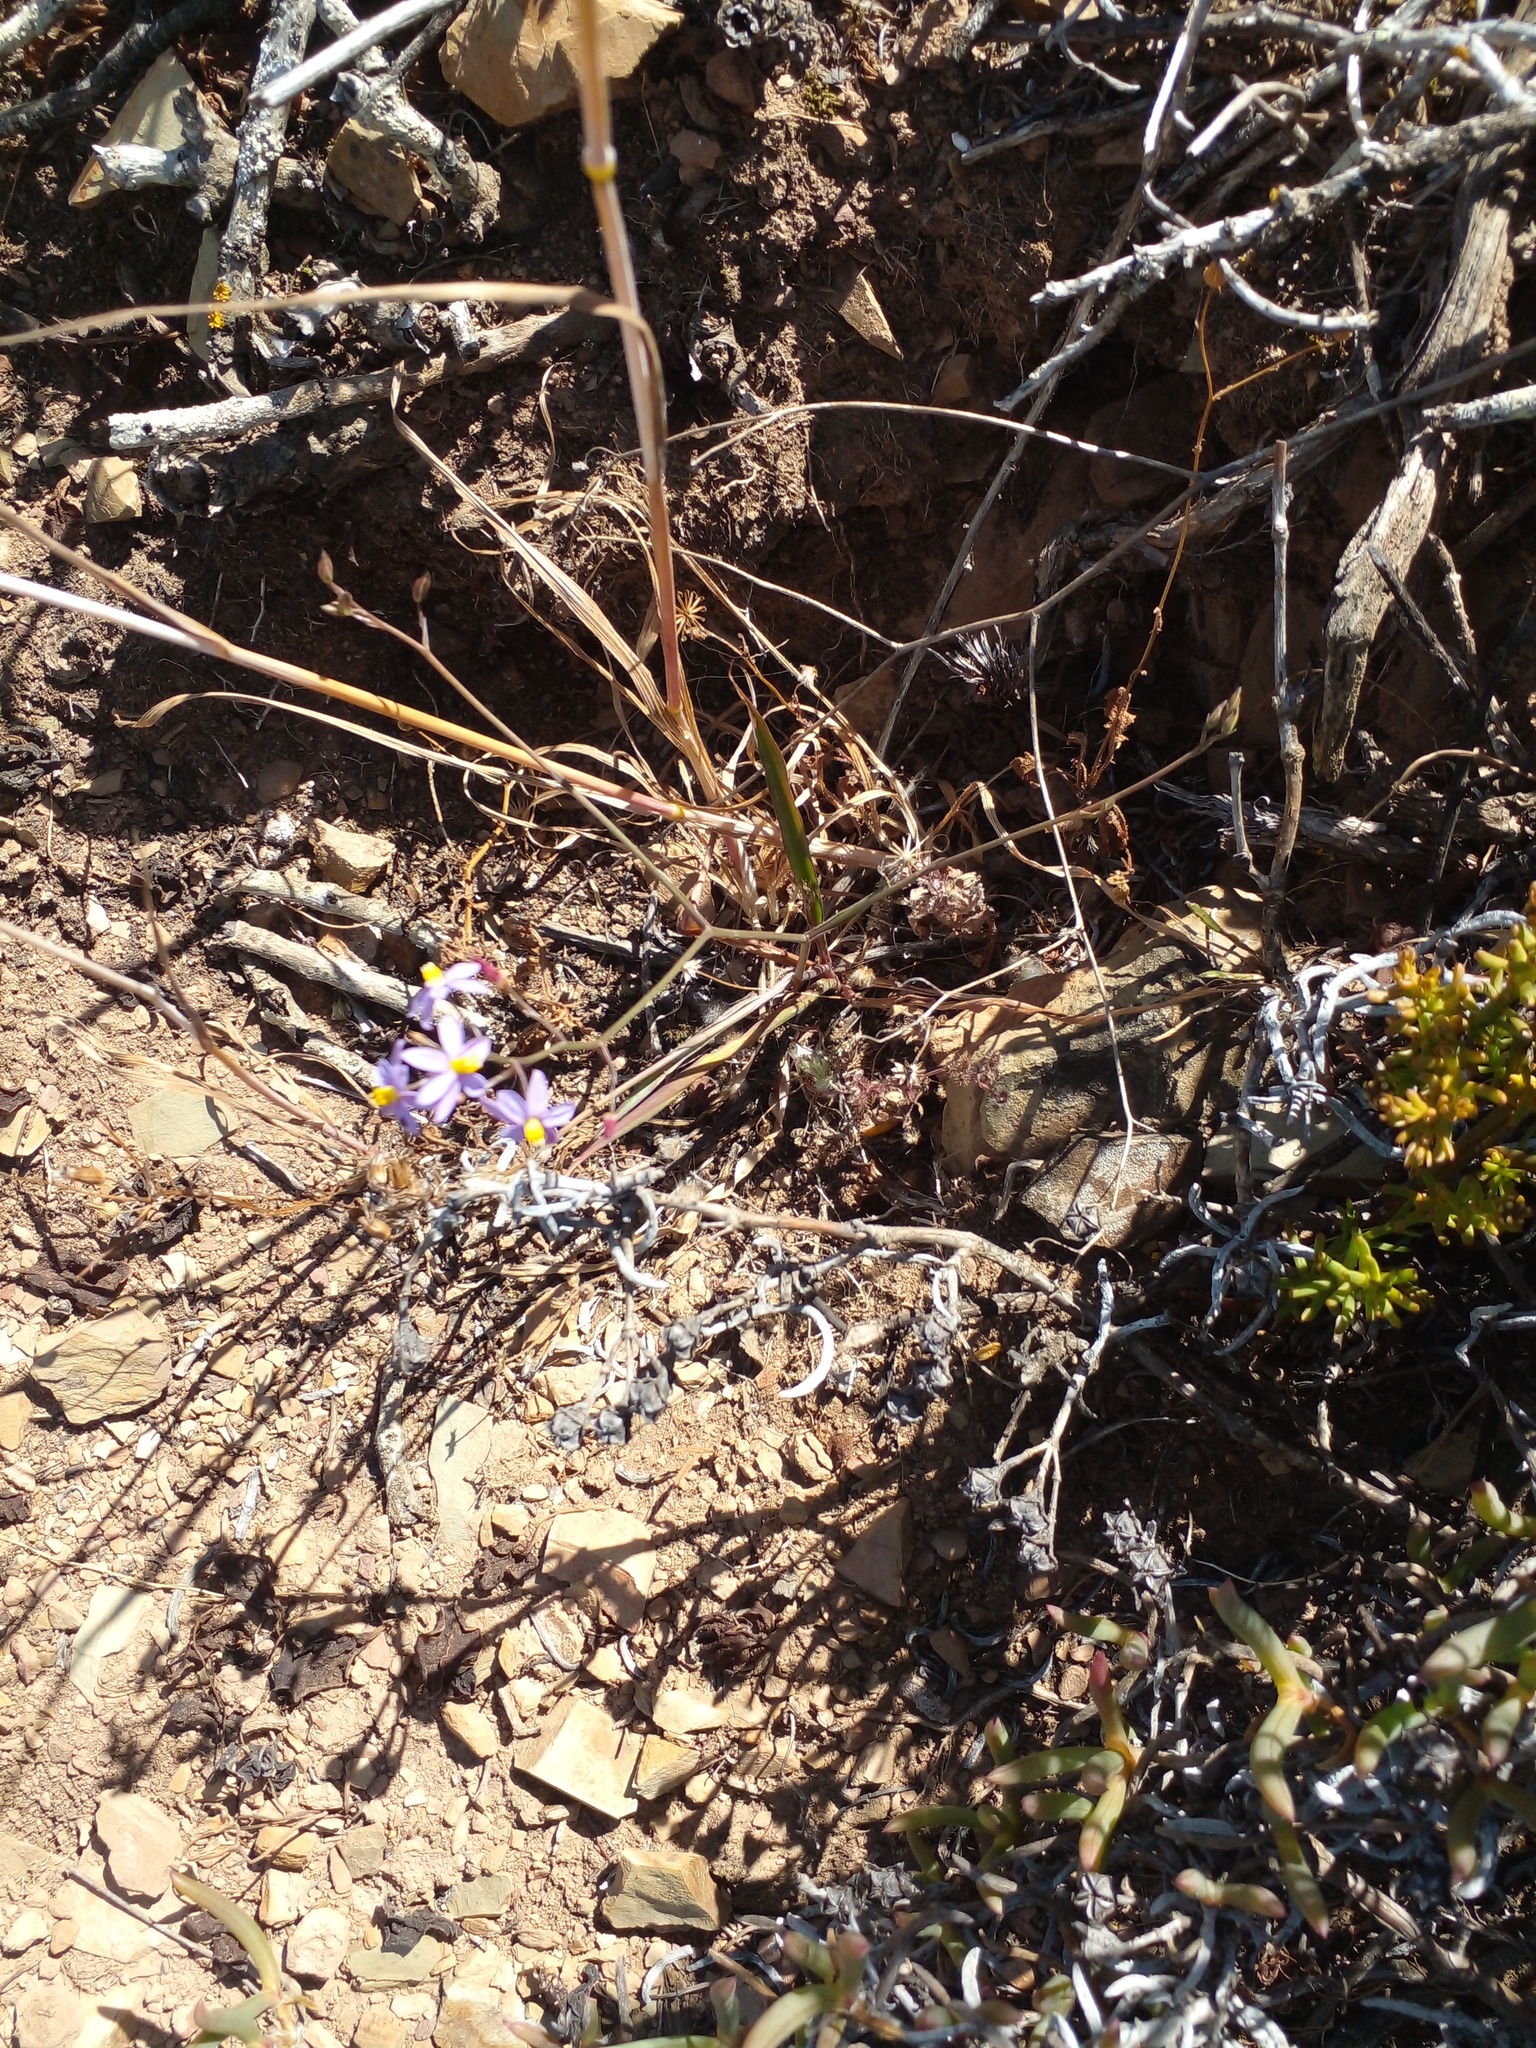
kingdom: Plantae
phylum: Tracheophyta
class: Liliopsida
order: Asparagales
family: Tecophilaeaceae
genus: Cyanella
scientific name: Cyanella hyacinthoides
